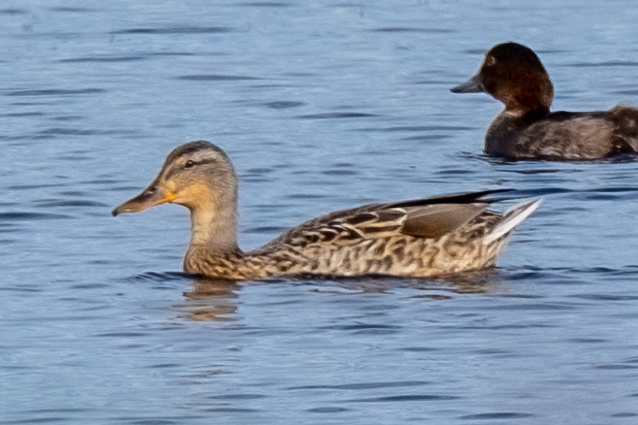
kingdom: Animalia
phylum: Chordata
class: Aves
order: Anseriformes
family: Anatidae
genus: Anas
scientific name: Anas platyrhynchos
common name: Mallard
